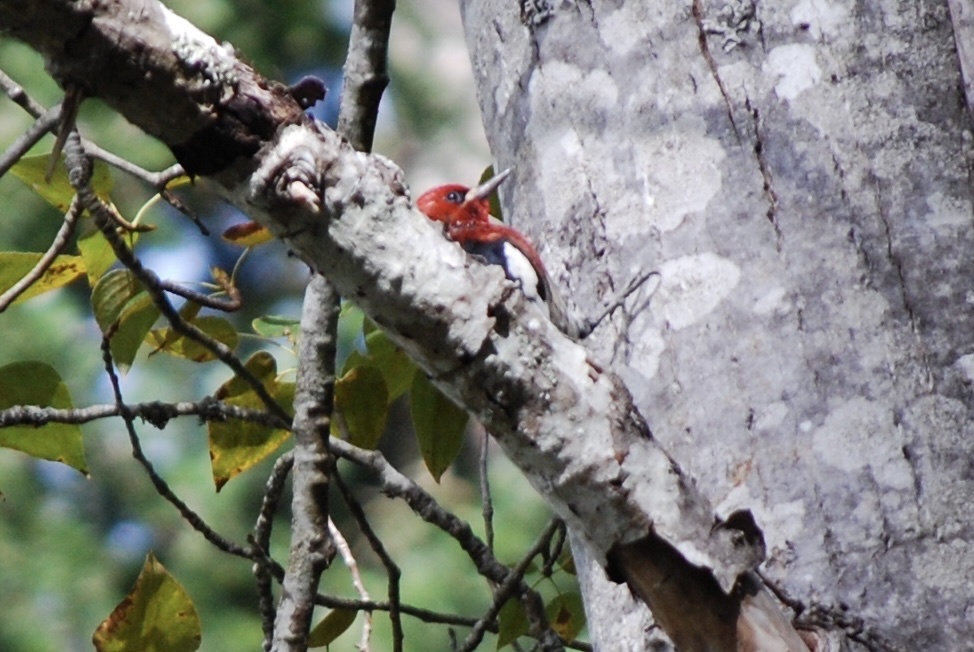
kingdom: Animalia
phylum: Chordata
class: Aves
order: Piciformes
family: Picidae
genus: Sphyrapicus
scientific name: Sphyrapicus ruber
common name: Red-breasted sapsucker
